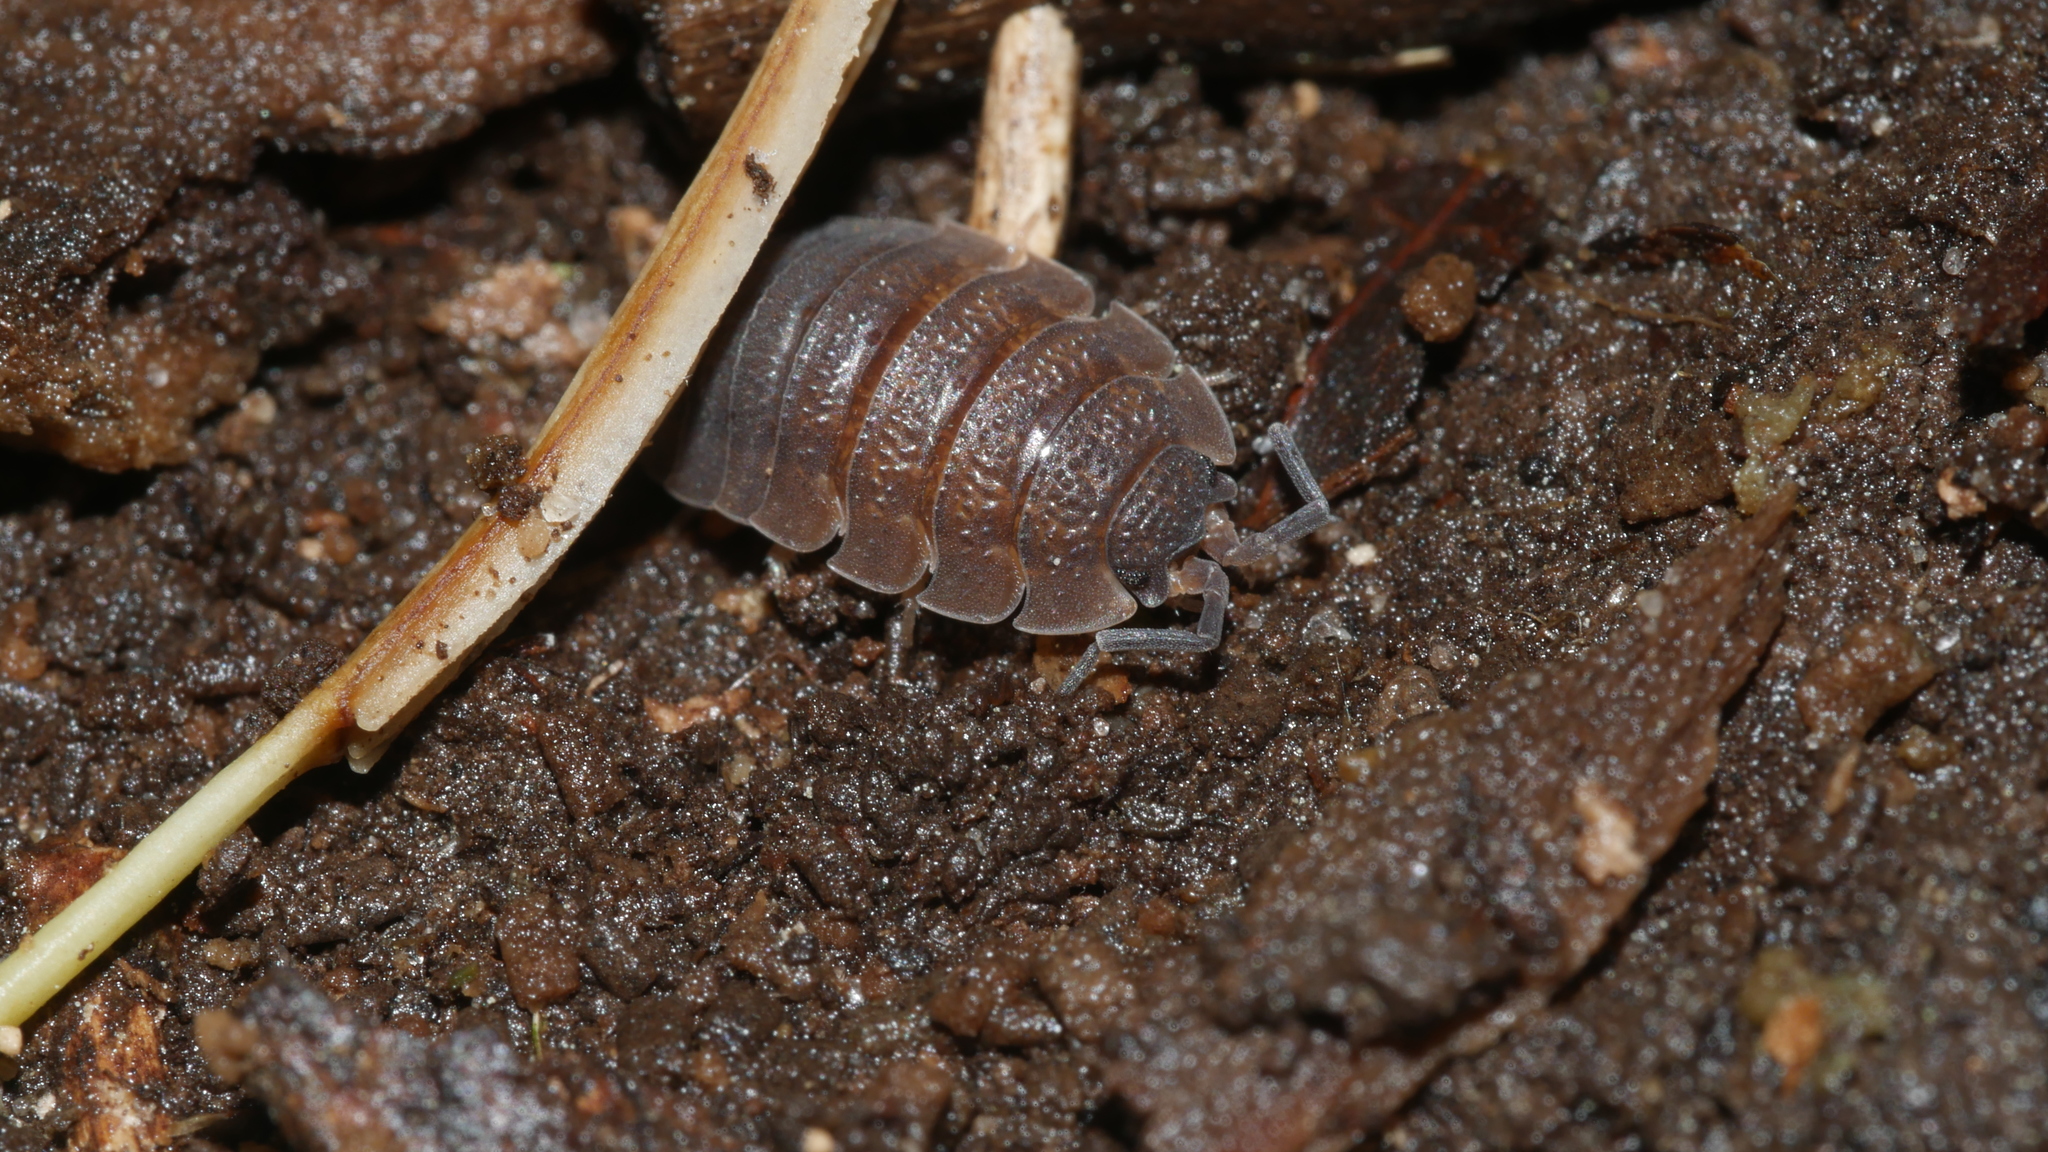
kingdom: Animalia
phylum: Arthropoda
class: Malacostraca
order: Isopoda
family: Porcellionidae
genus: Porcellio
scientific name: Porcellio scaber
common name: Common rough woodlouse
